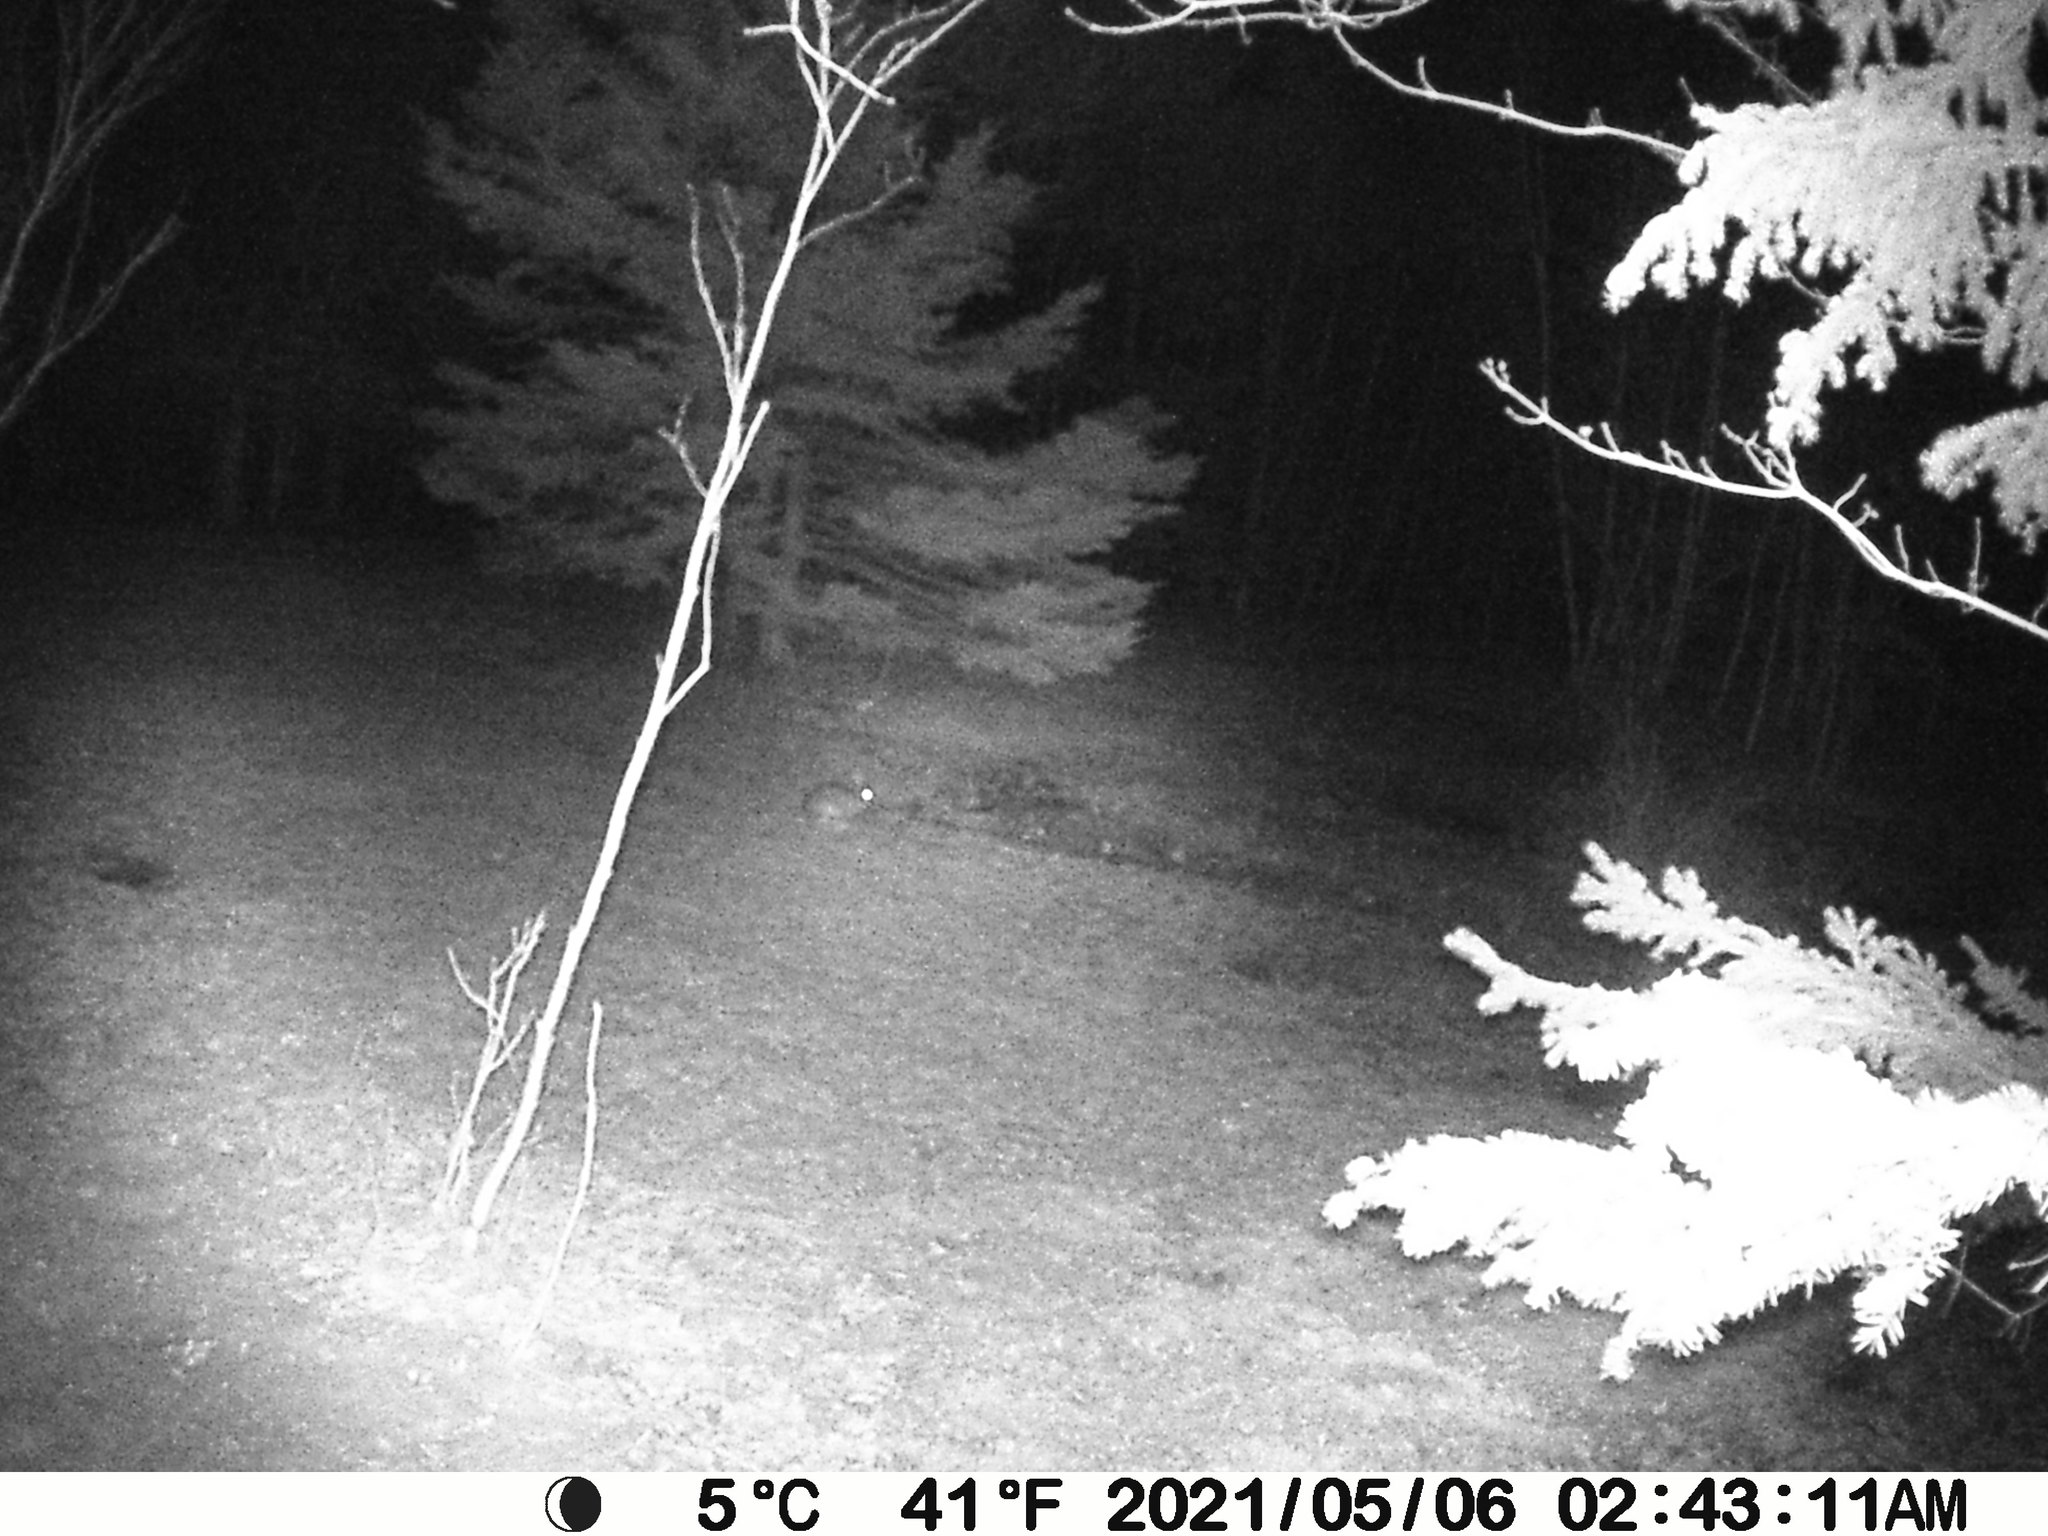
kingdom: Animalia
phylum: Chordata
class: Mammalia
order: Lagomorpha
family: Leporidae
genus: Lepus
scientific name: Lepus americanus
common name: Snowshoe hare
